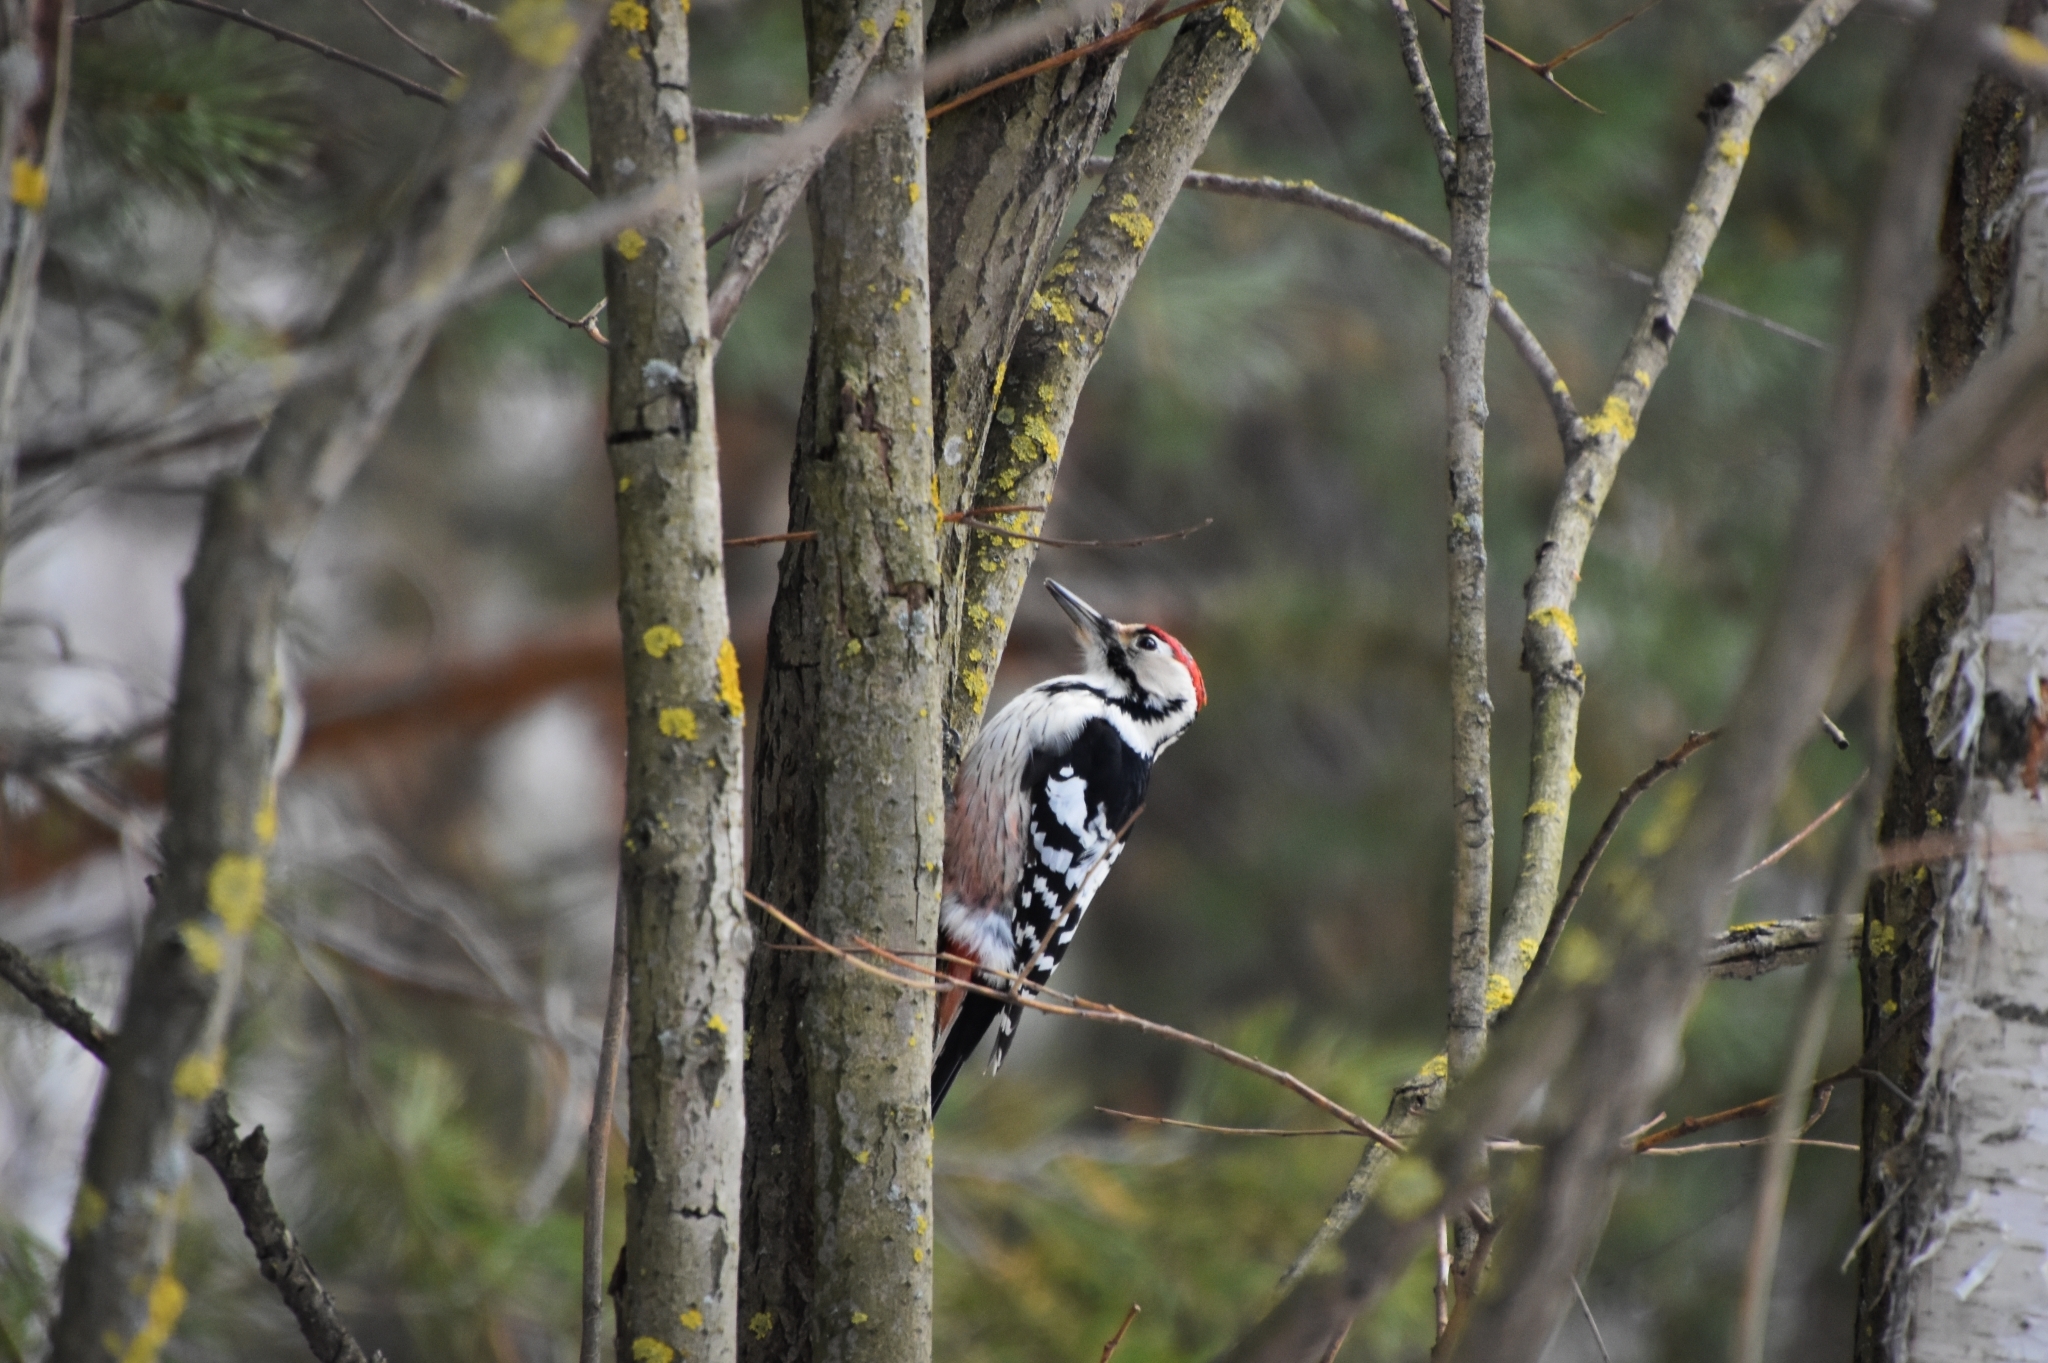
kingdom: Animalia
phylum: Chordata
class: Aves
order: Piciformes
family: Picidae
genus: Dendrocopos
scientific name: Dendrocopos leucotos
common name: White-backed woodpecker
